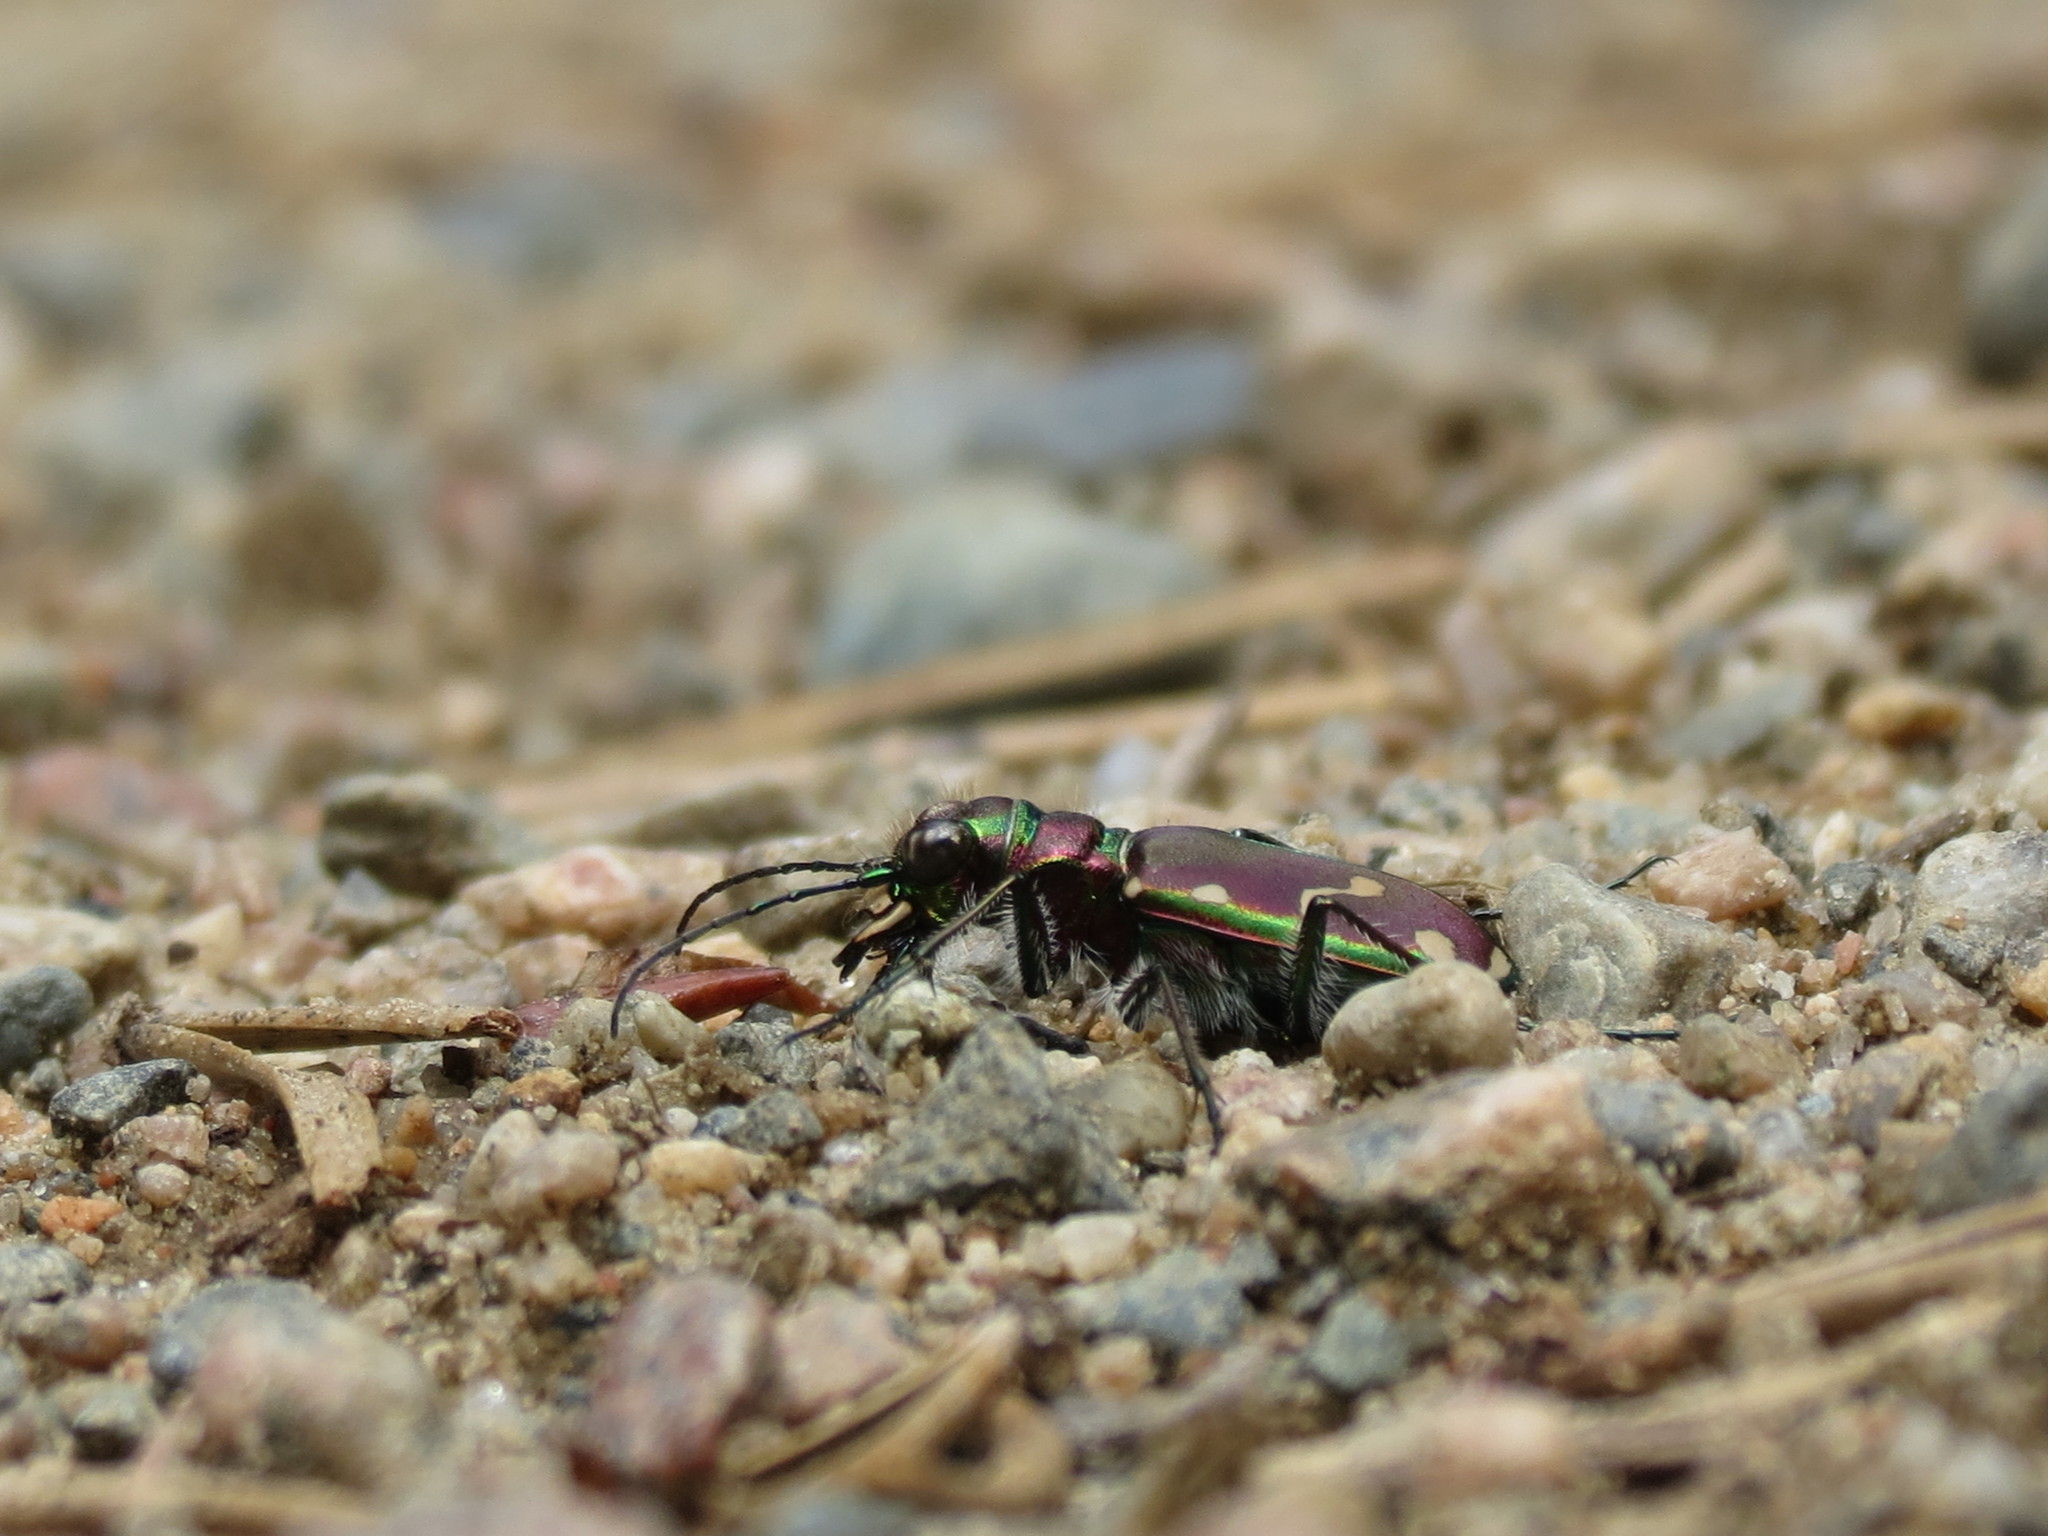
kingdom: Animalia
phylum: Arthropoda
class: Insecta
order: Coleoptera
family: Carabidae
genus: Cicindela
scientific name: Cicindela limbalis
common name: Common claybank tiger beetle
